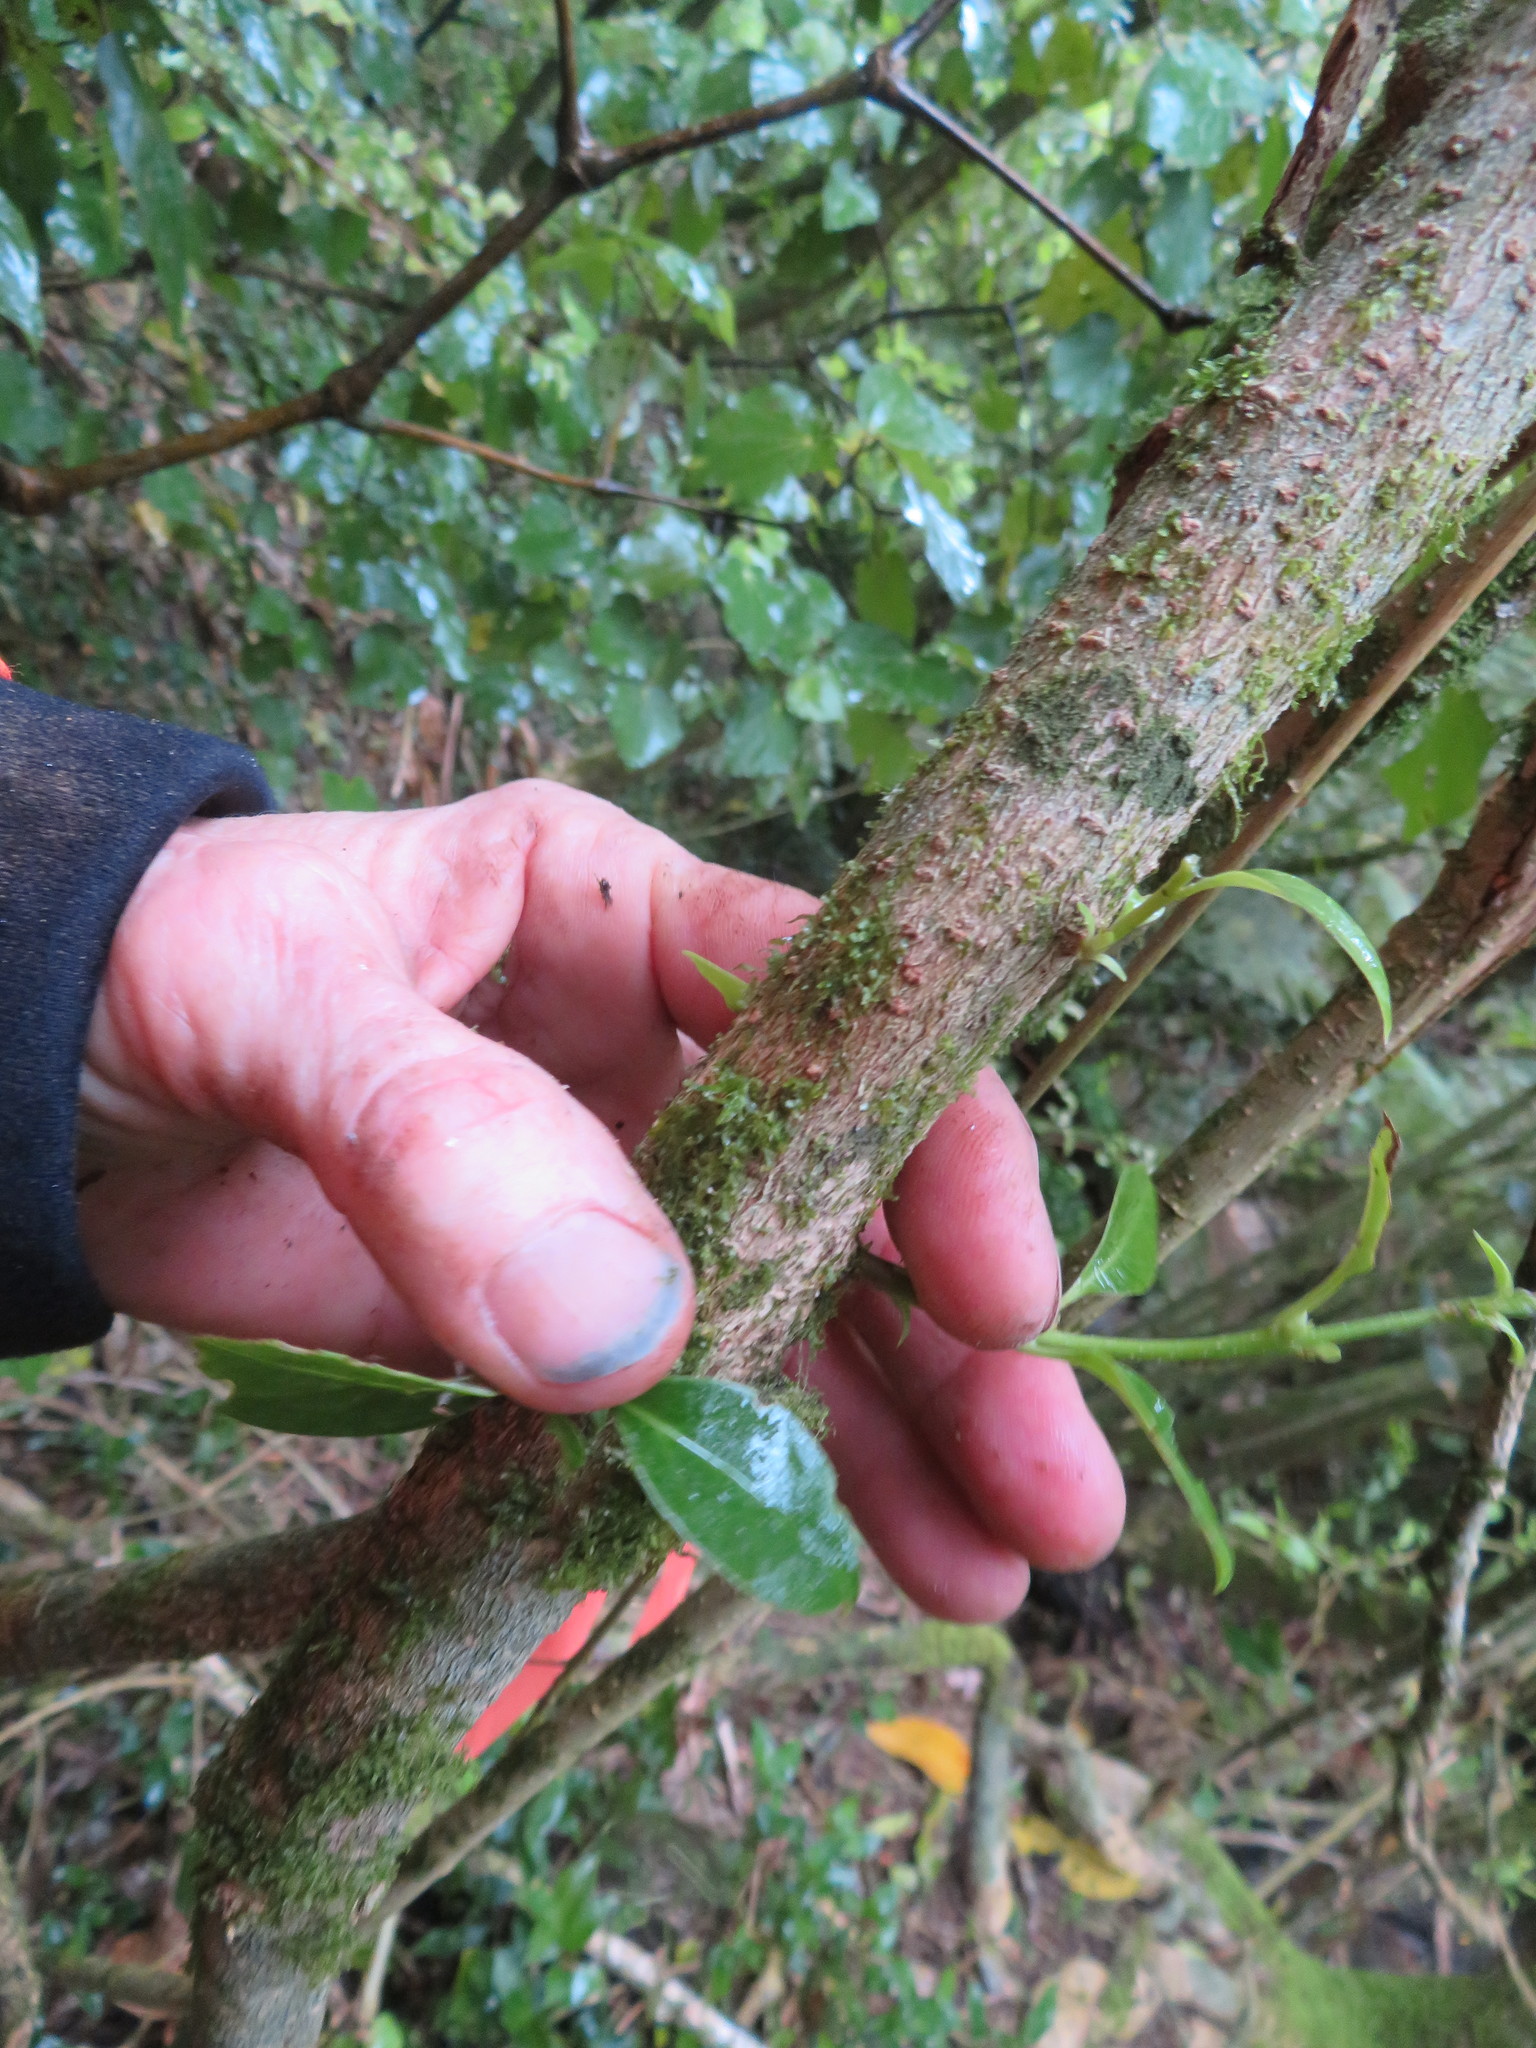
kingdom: Plantae
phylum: Tracheophyta
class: Magnoliopsida
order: Lamiales
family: Oleaceae
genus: Ligustrum
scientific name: Ligustrum lucidum
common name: Glossy privet
